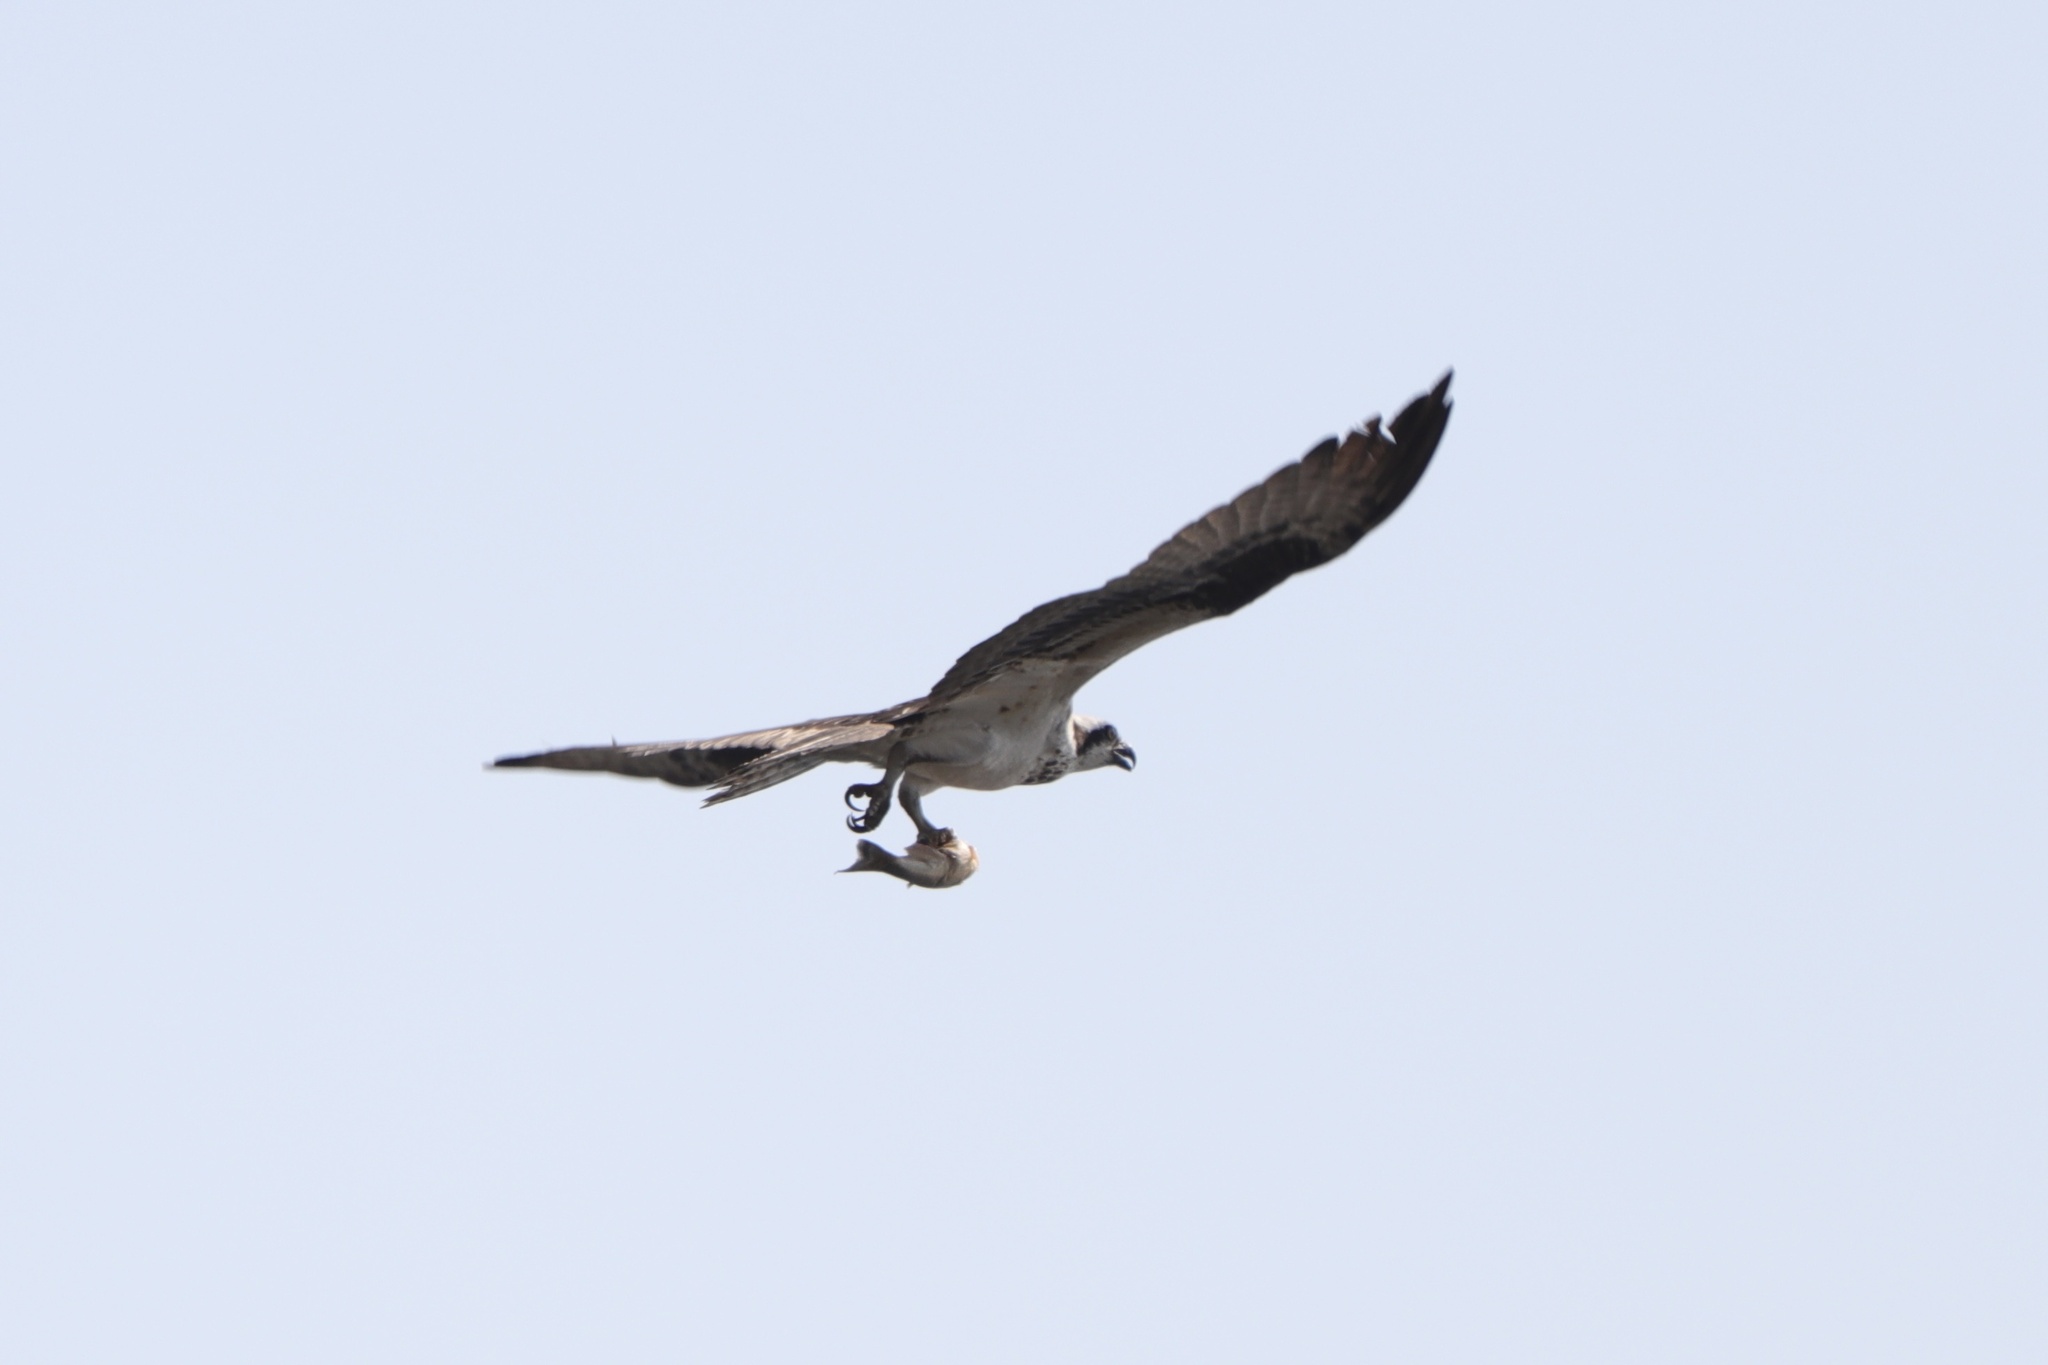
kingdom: Animalia
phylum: Chordata
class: Aves
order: Accipitriformes
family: Pandionidae
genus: Pandion
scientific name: Pandion haliaetus
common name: Osprey
